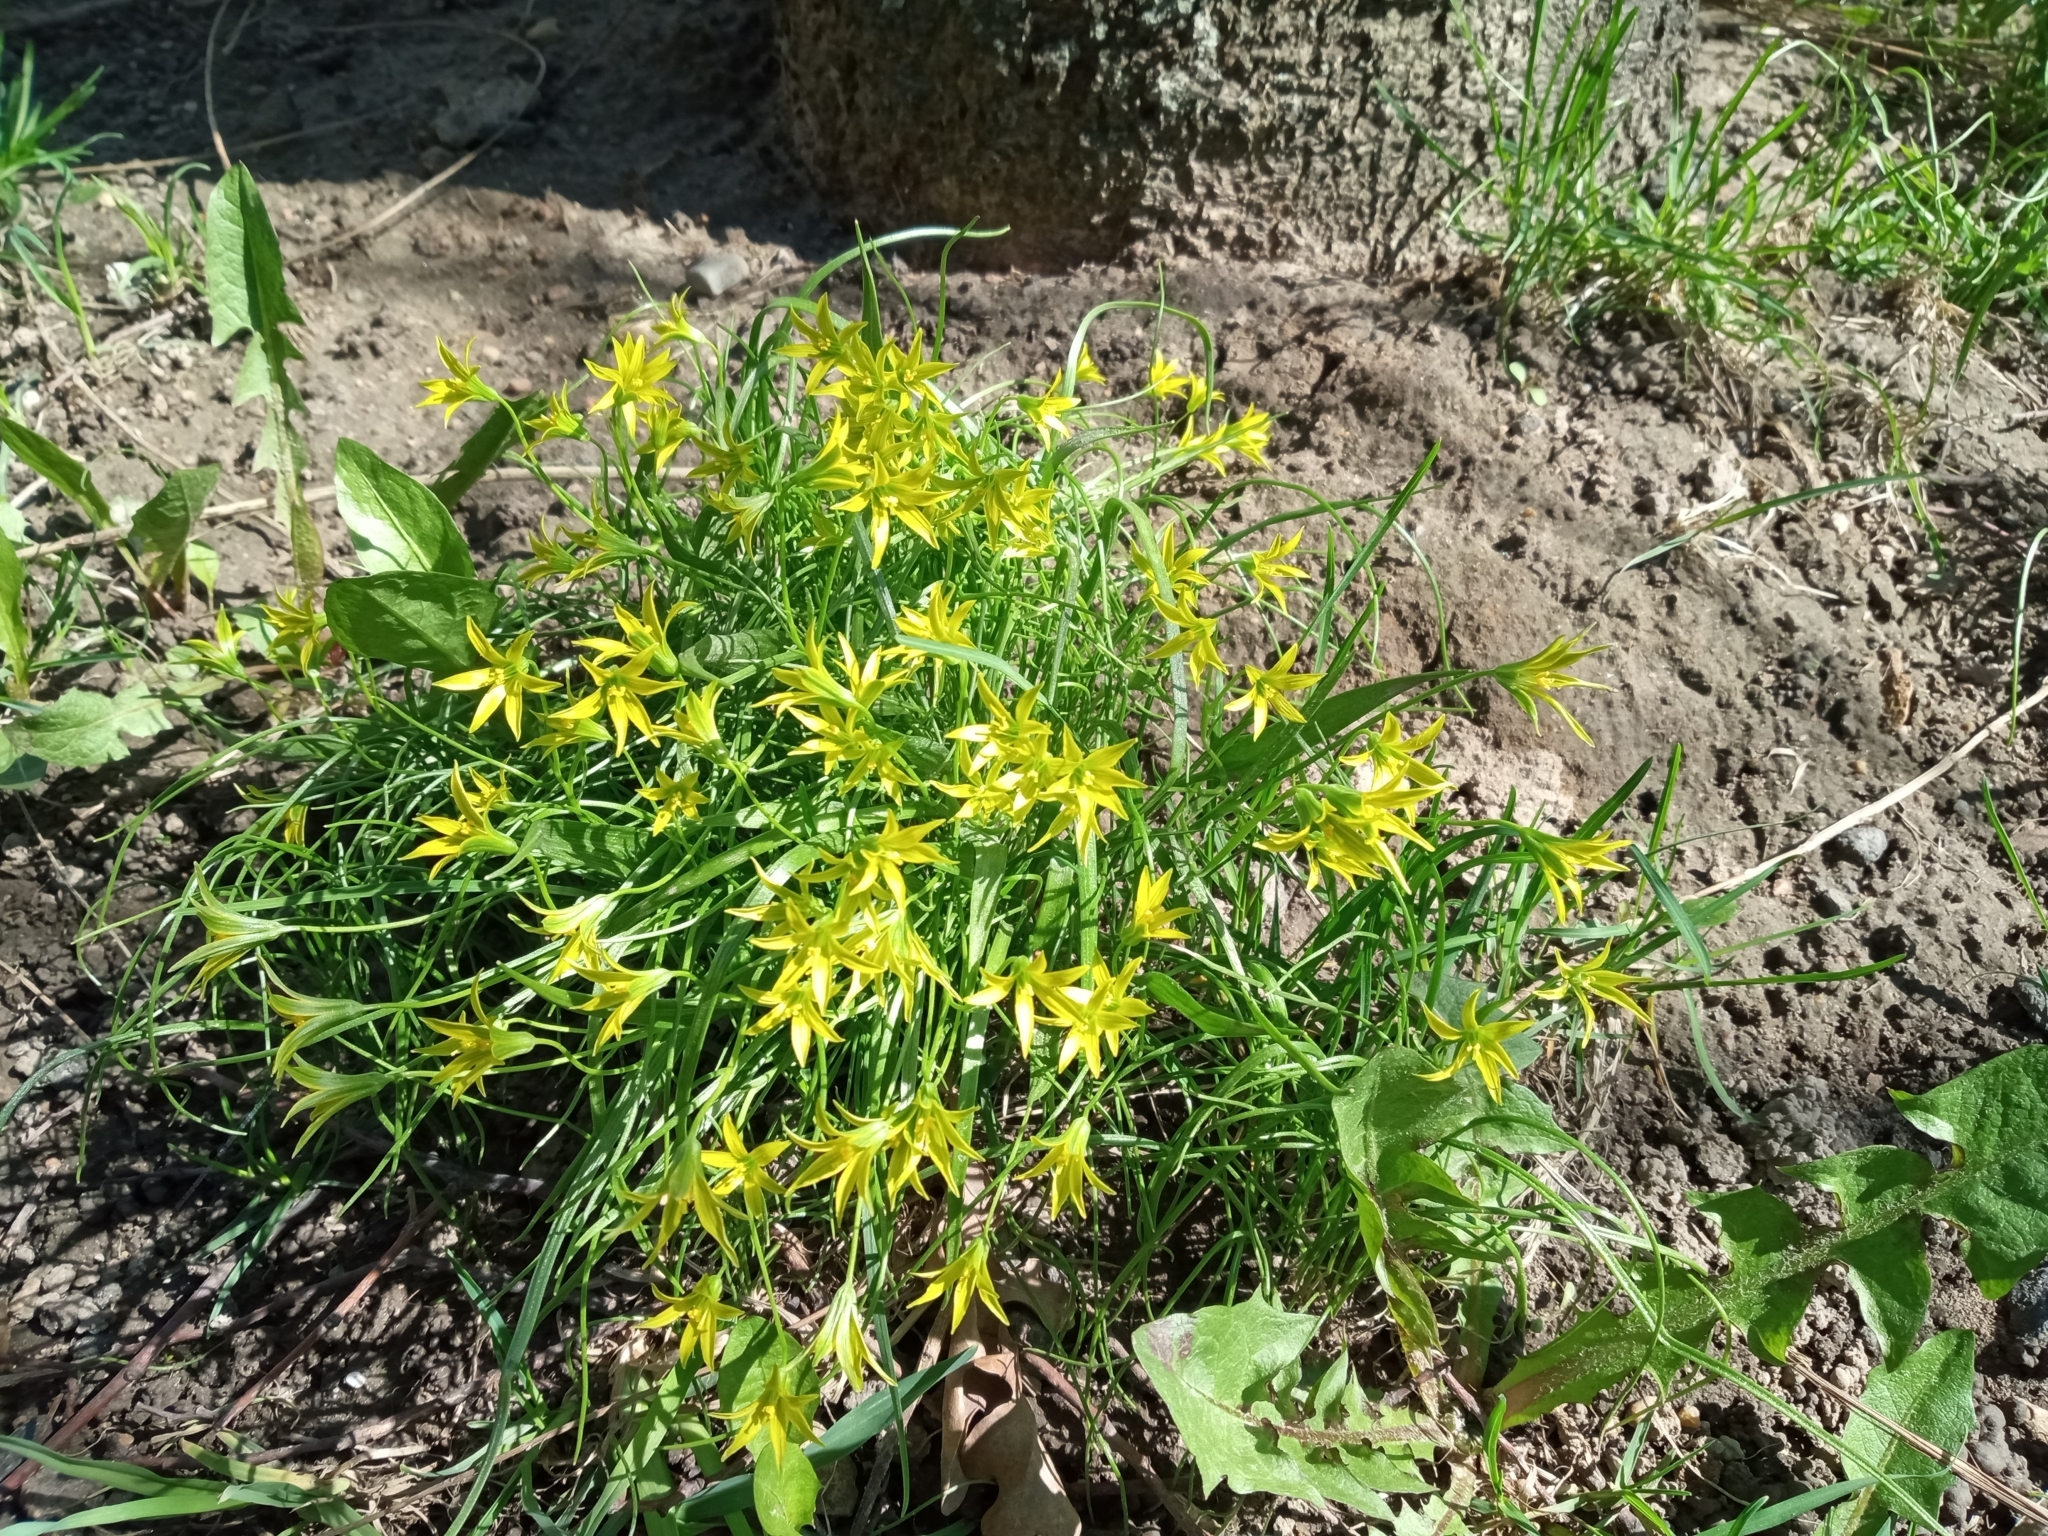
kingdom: Plantae
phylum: Tracheophyta
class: Liliopsida
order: Liliales
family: Liliaceae
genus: Gagea
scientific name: Gagea minima
